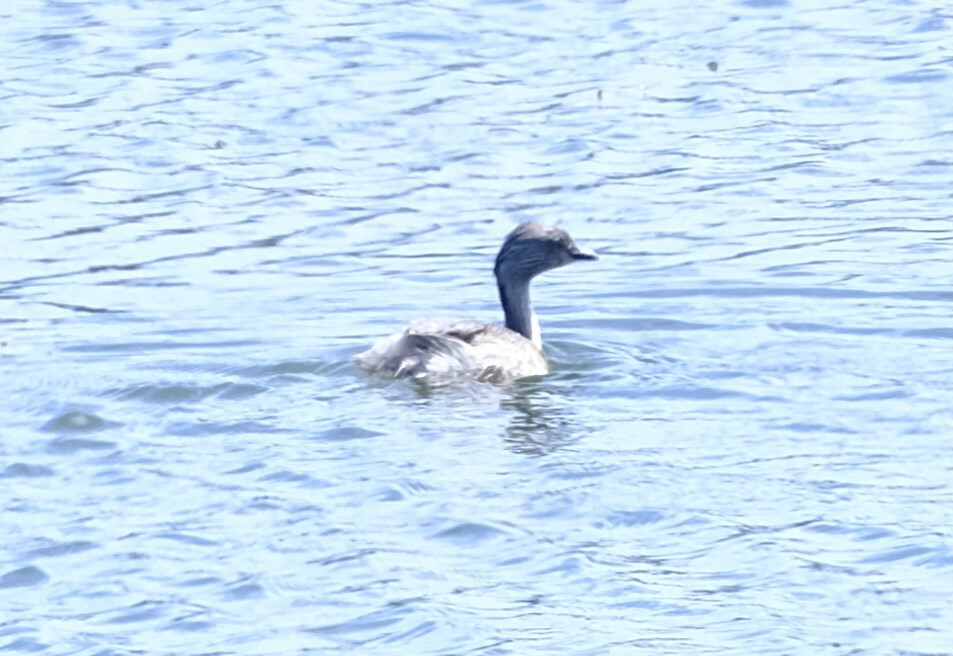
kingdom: Animalia
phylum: Chordata
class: Aves
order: Podicipediformes
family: Podicipedidae
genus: Poliocephalus
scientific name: Poliocephalus poliocephalus
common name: Hoary-headed grebe
